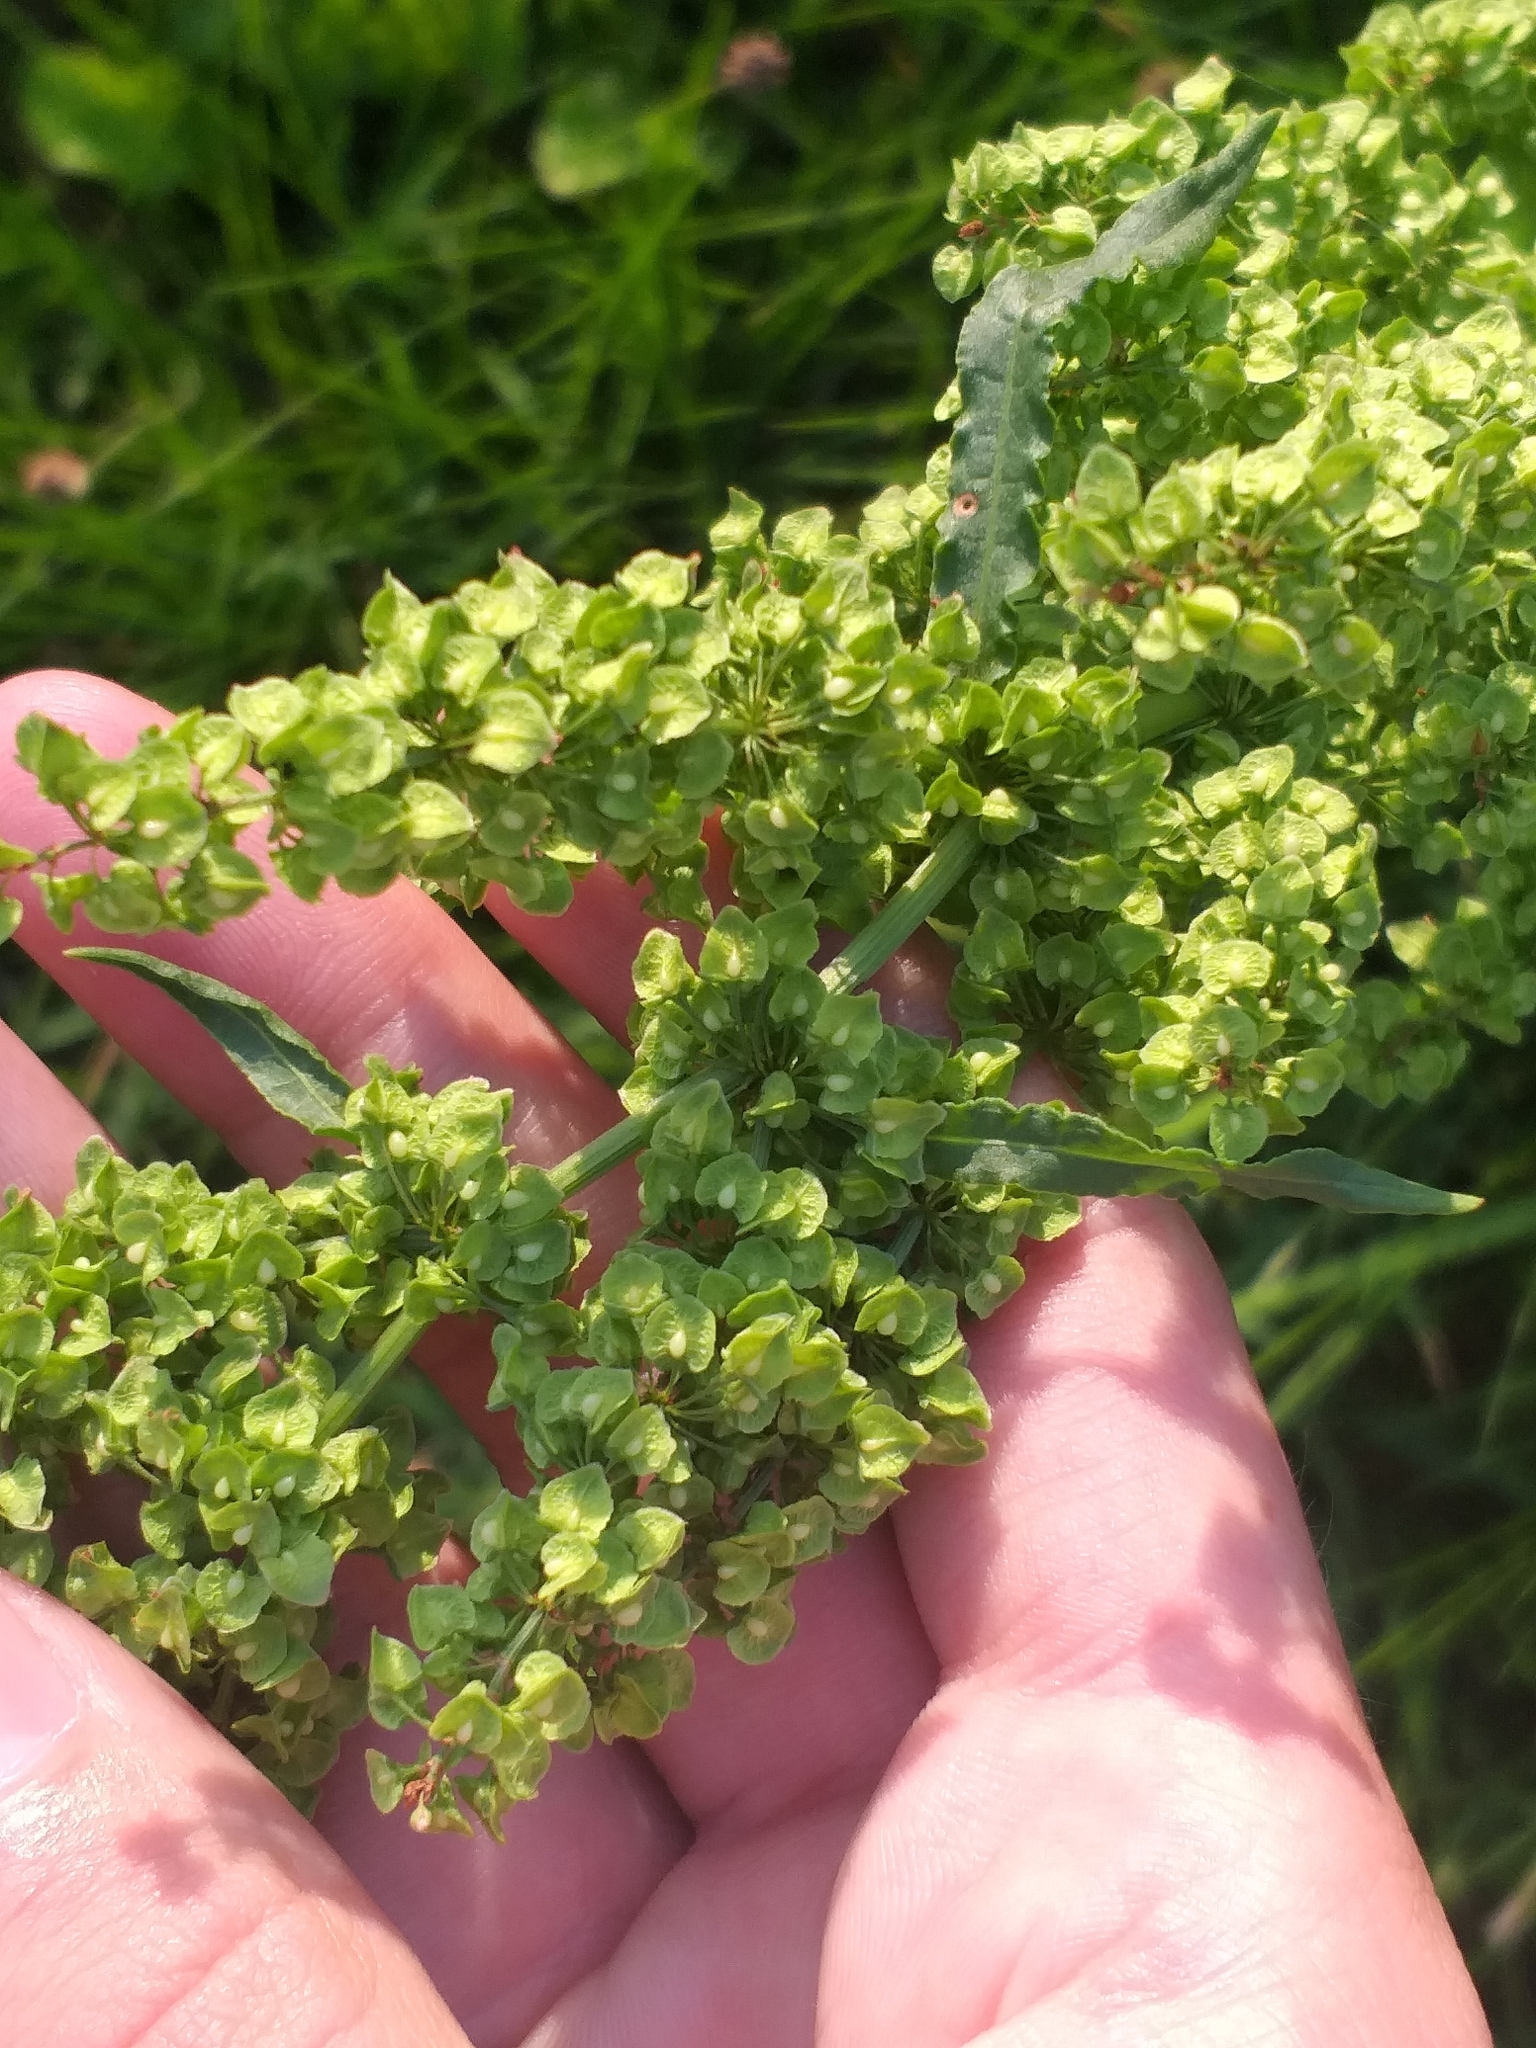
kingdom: Plantae
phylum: Tracheophyta
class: Magnoliopsida
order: Caryophyllales
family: Polygonaceae
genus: Rumex
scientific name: Rumex crispus
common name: Curled dock
